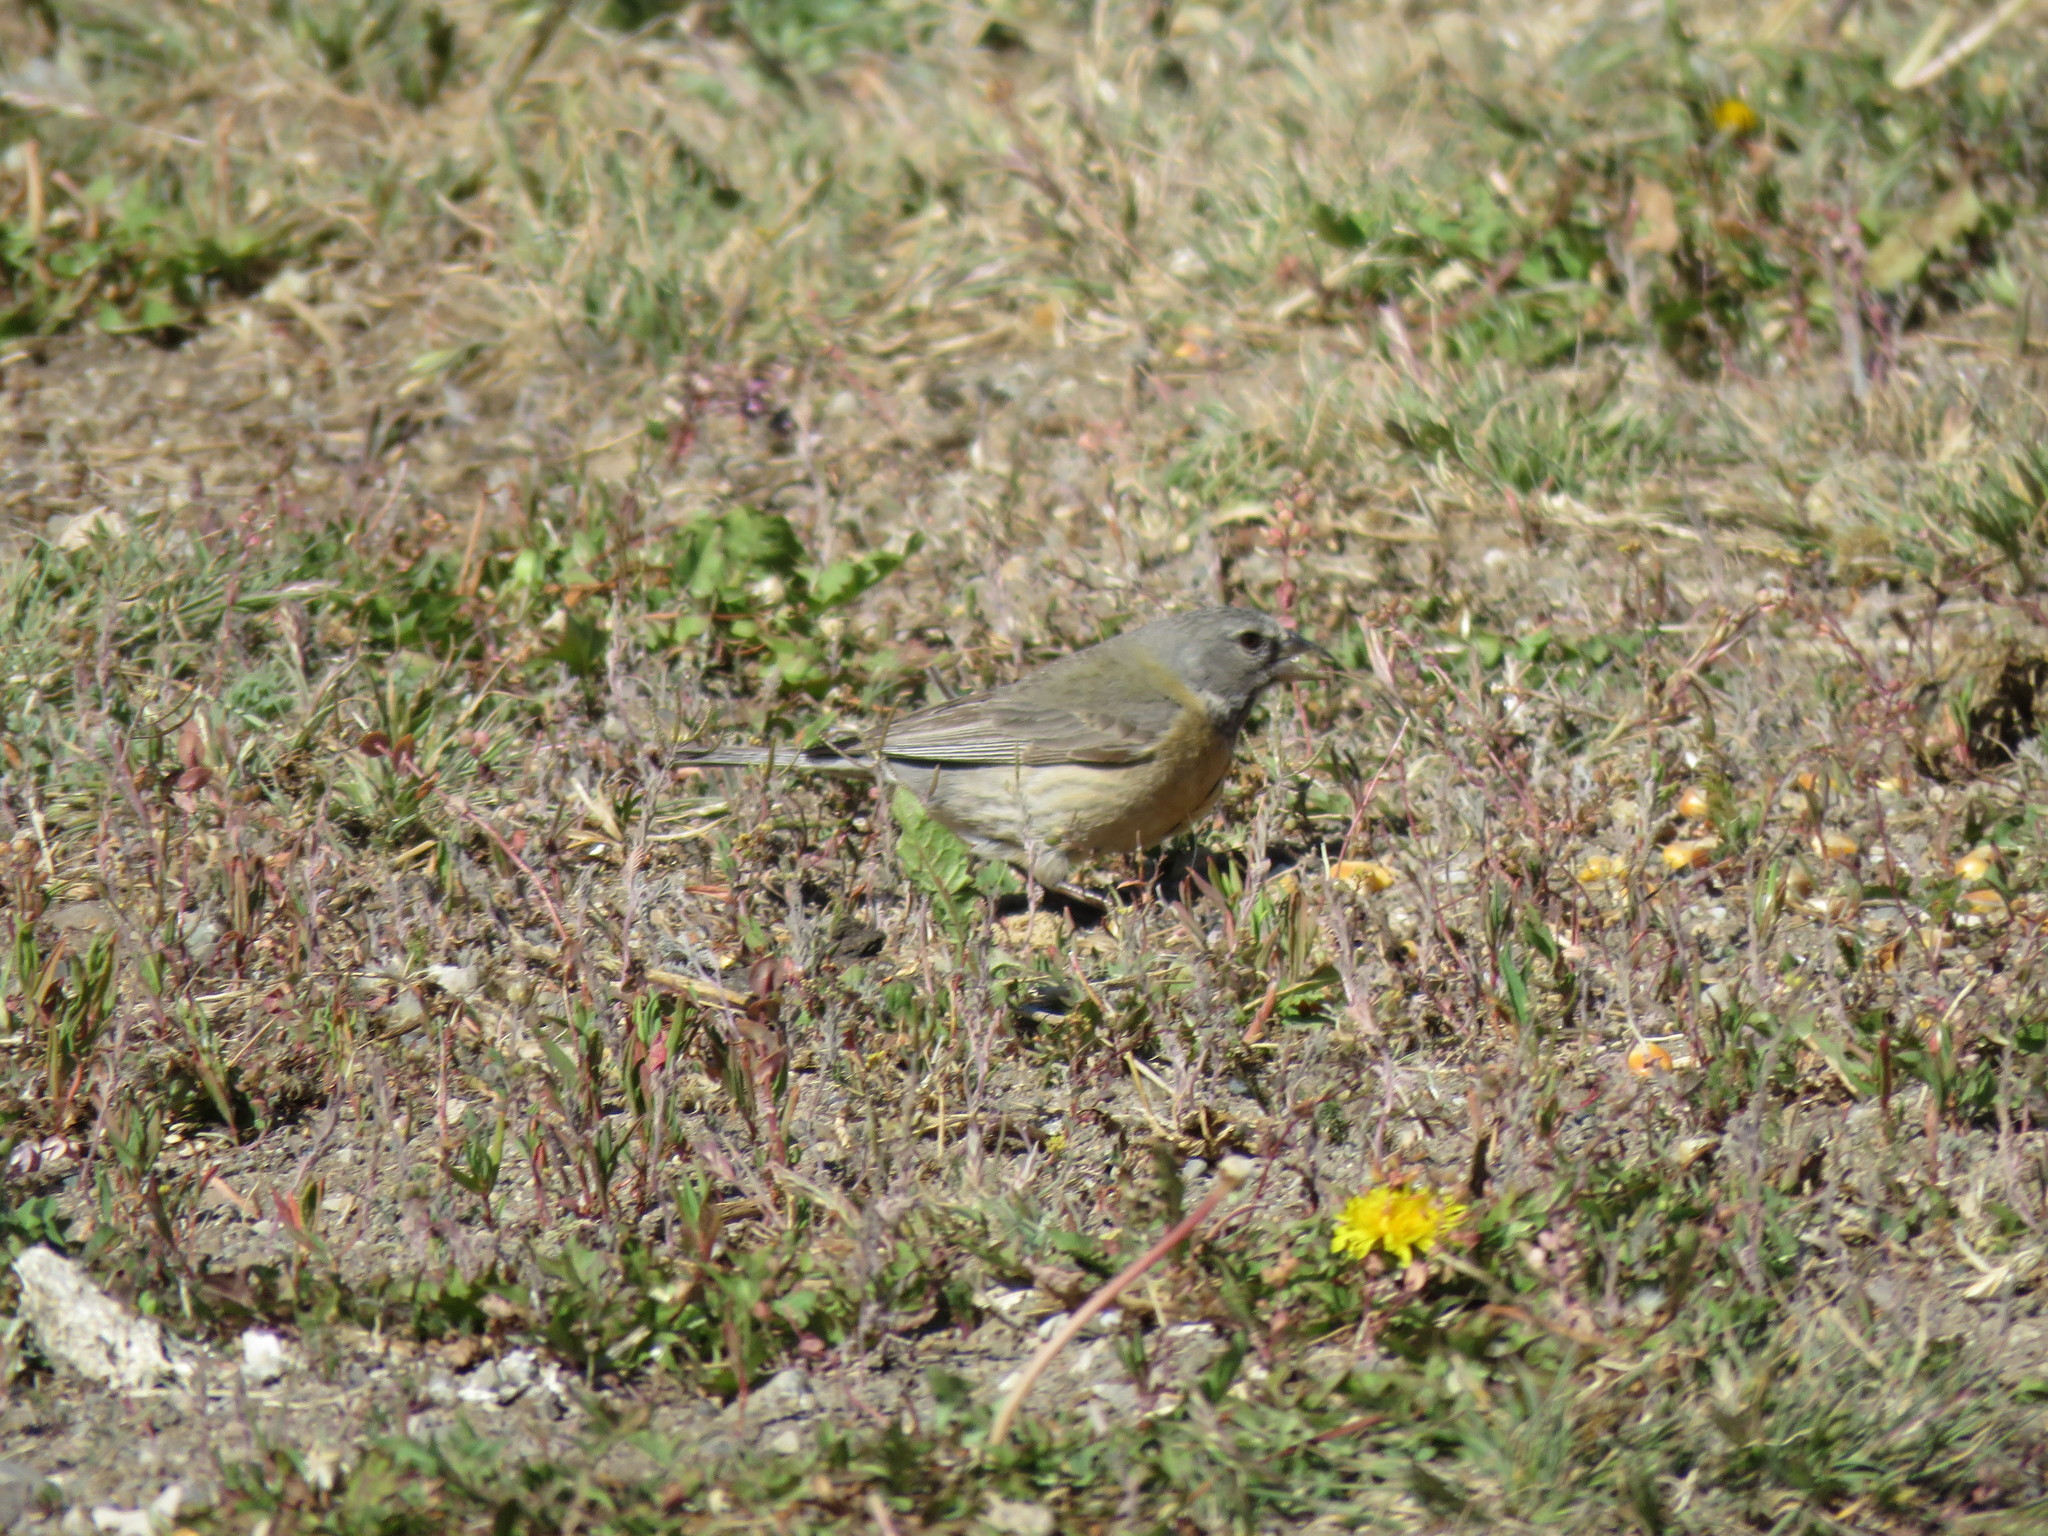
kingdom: Animalia
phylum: Chordata
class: Aves
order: Passeriformes
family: Thraupidae
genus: Phrygilus
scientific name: Phrygilus gayi
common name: Grey-hooded sierra finch
